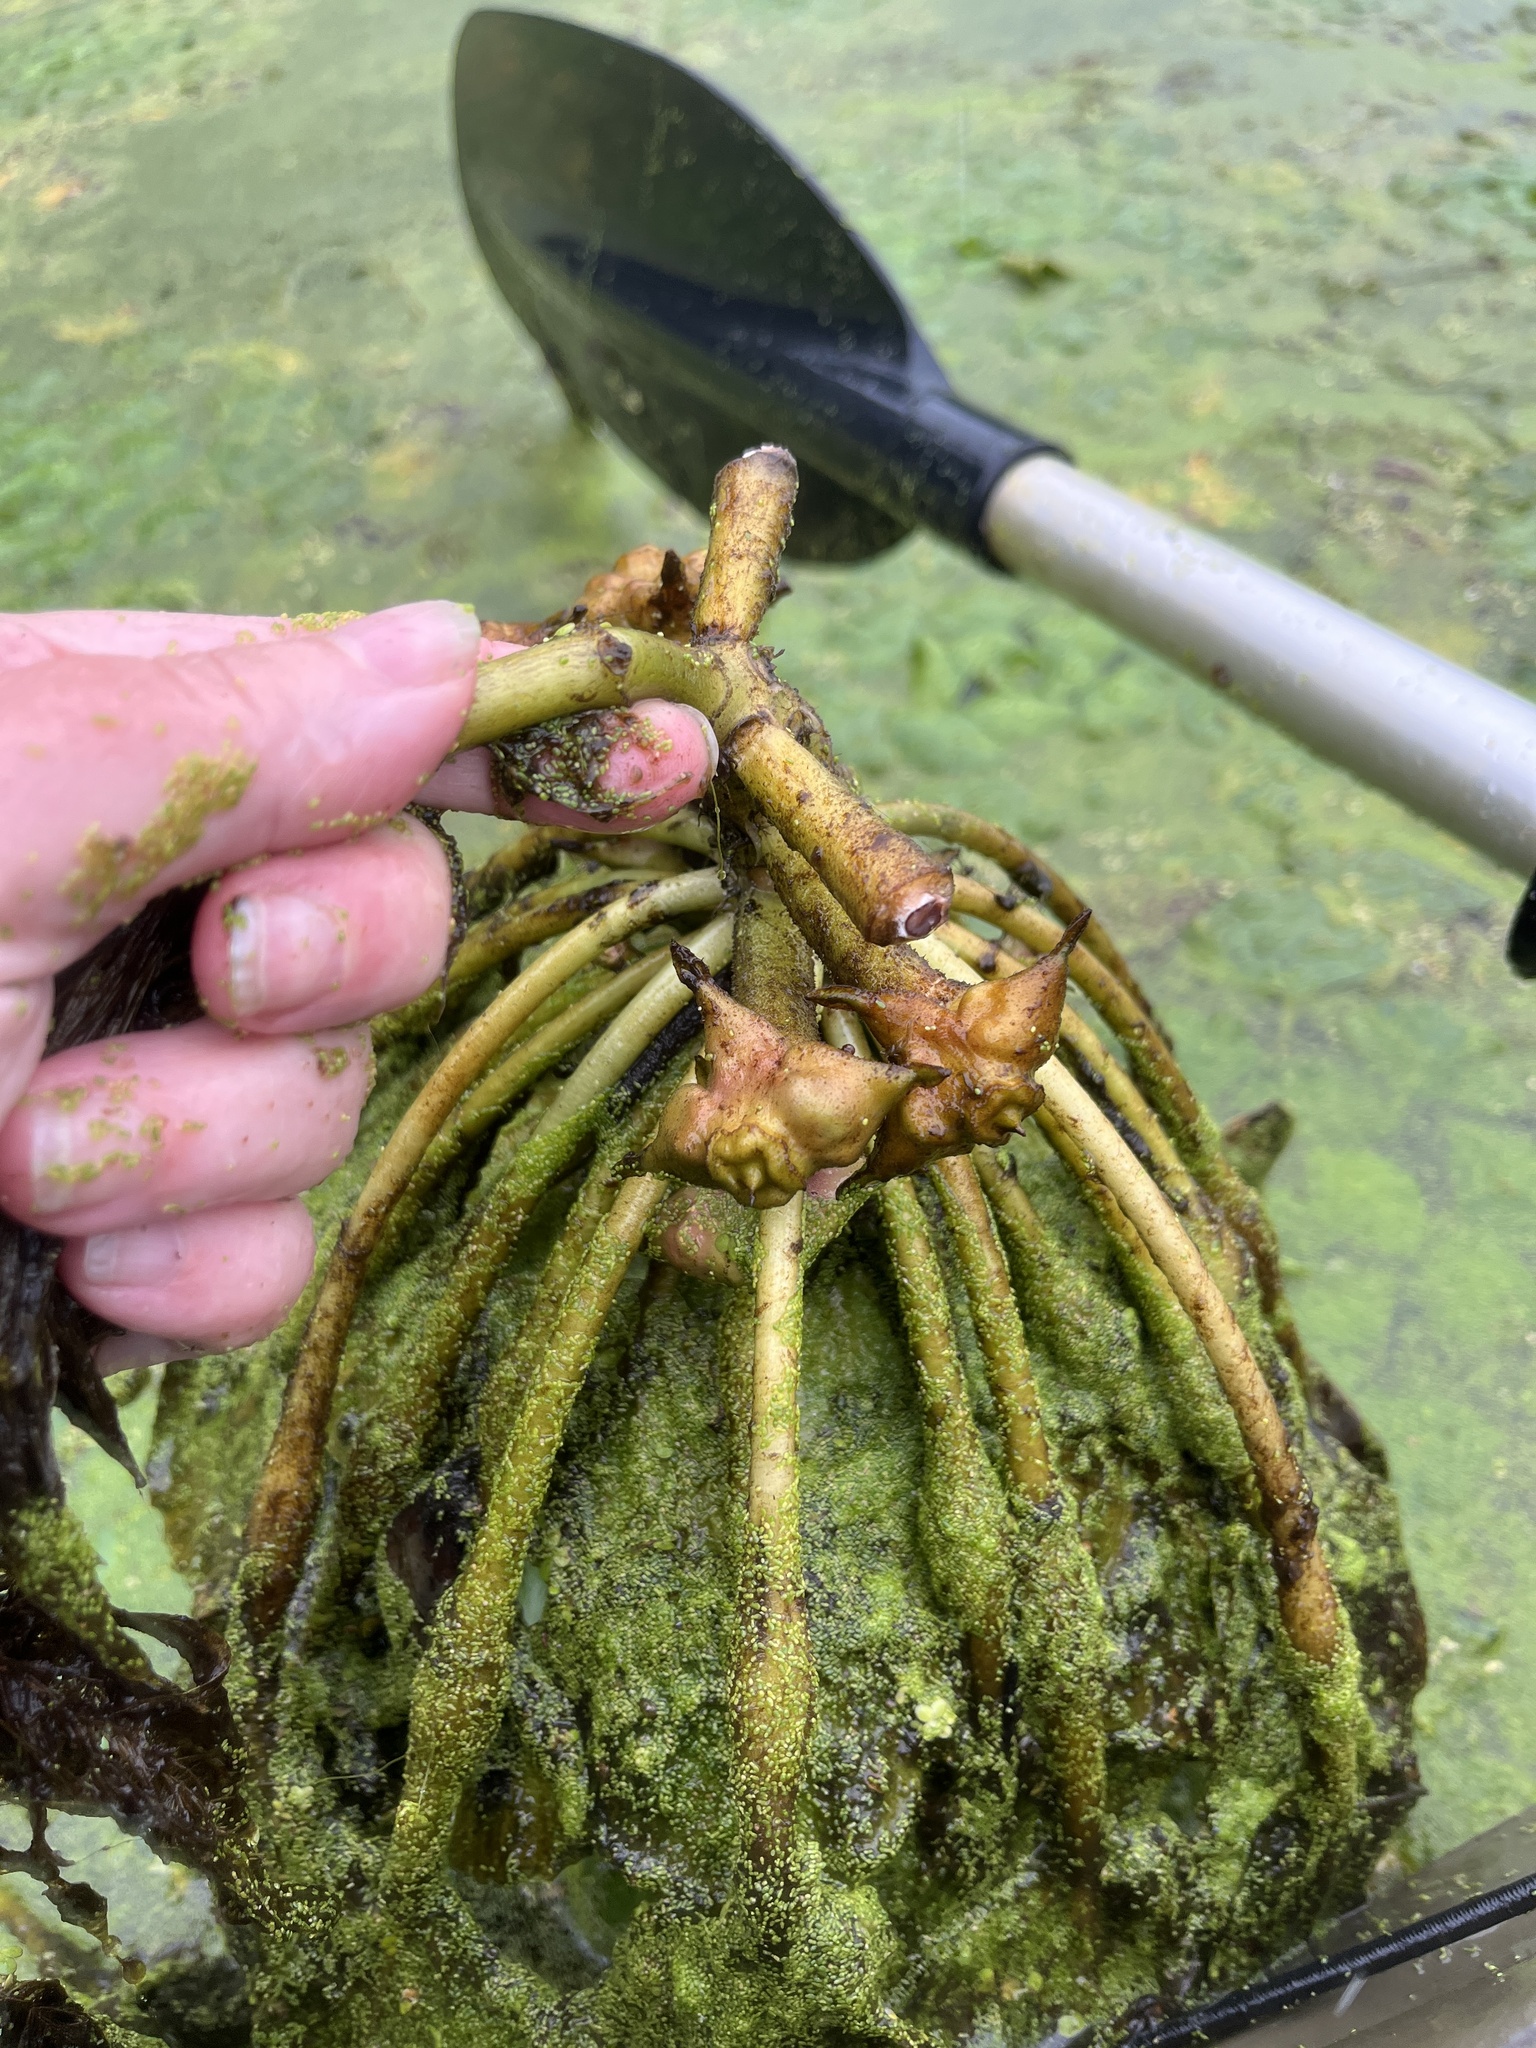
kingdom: Plantae
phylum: Tracheophyta
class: Magnoliopsida
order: Myrtales
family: Lythraceae
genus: Trapa
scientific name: Trapa natans
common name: Water chestnut
